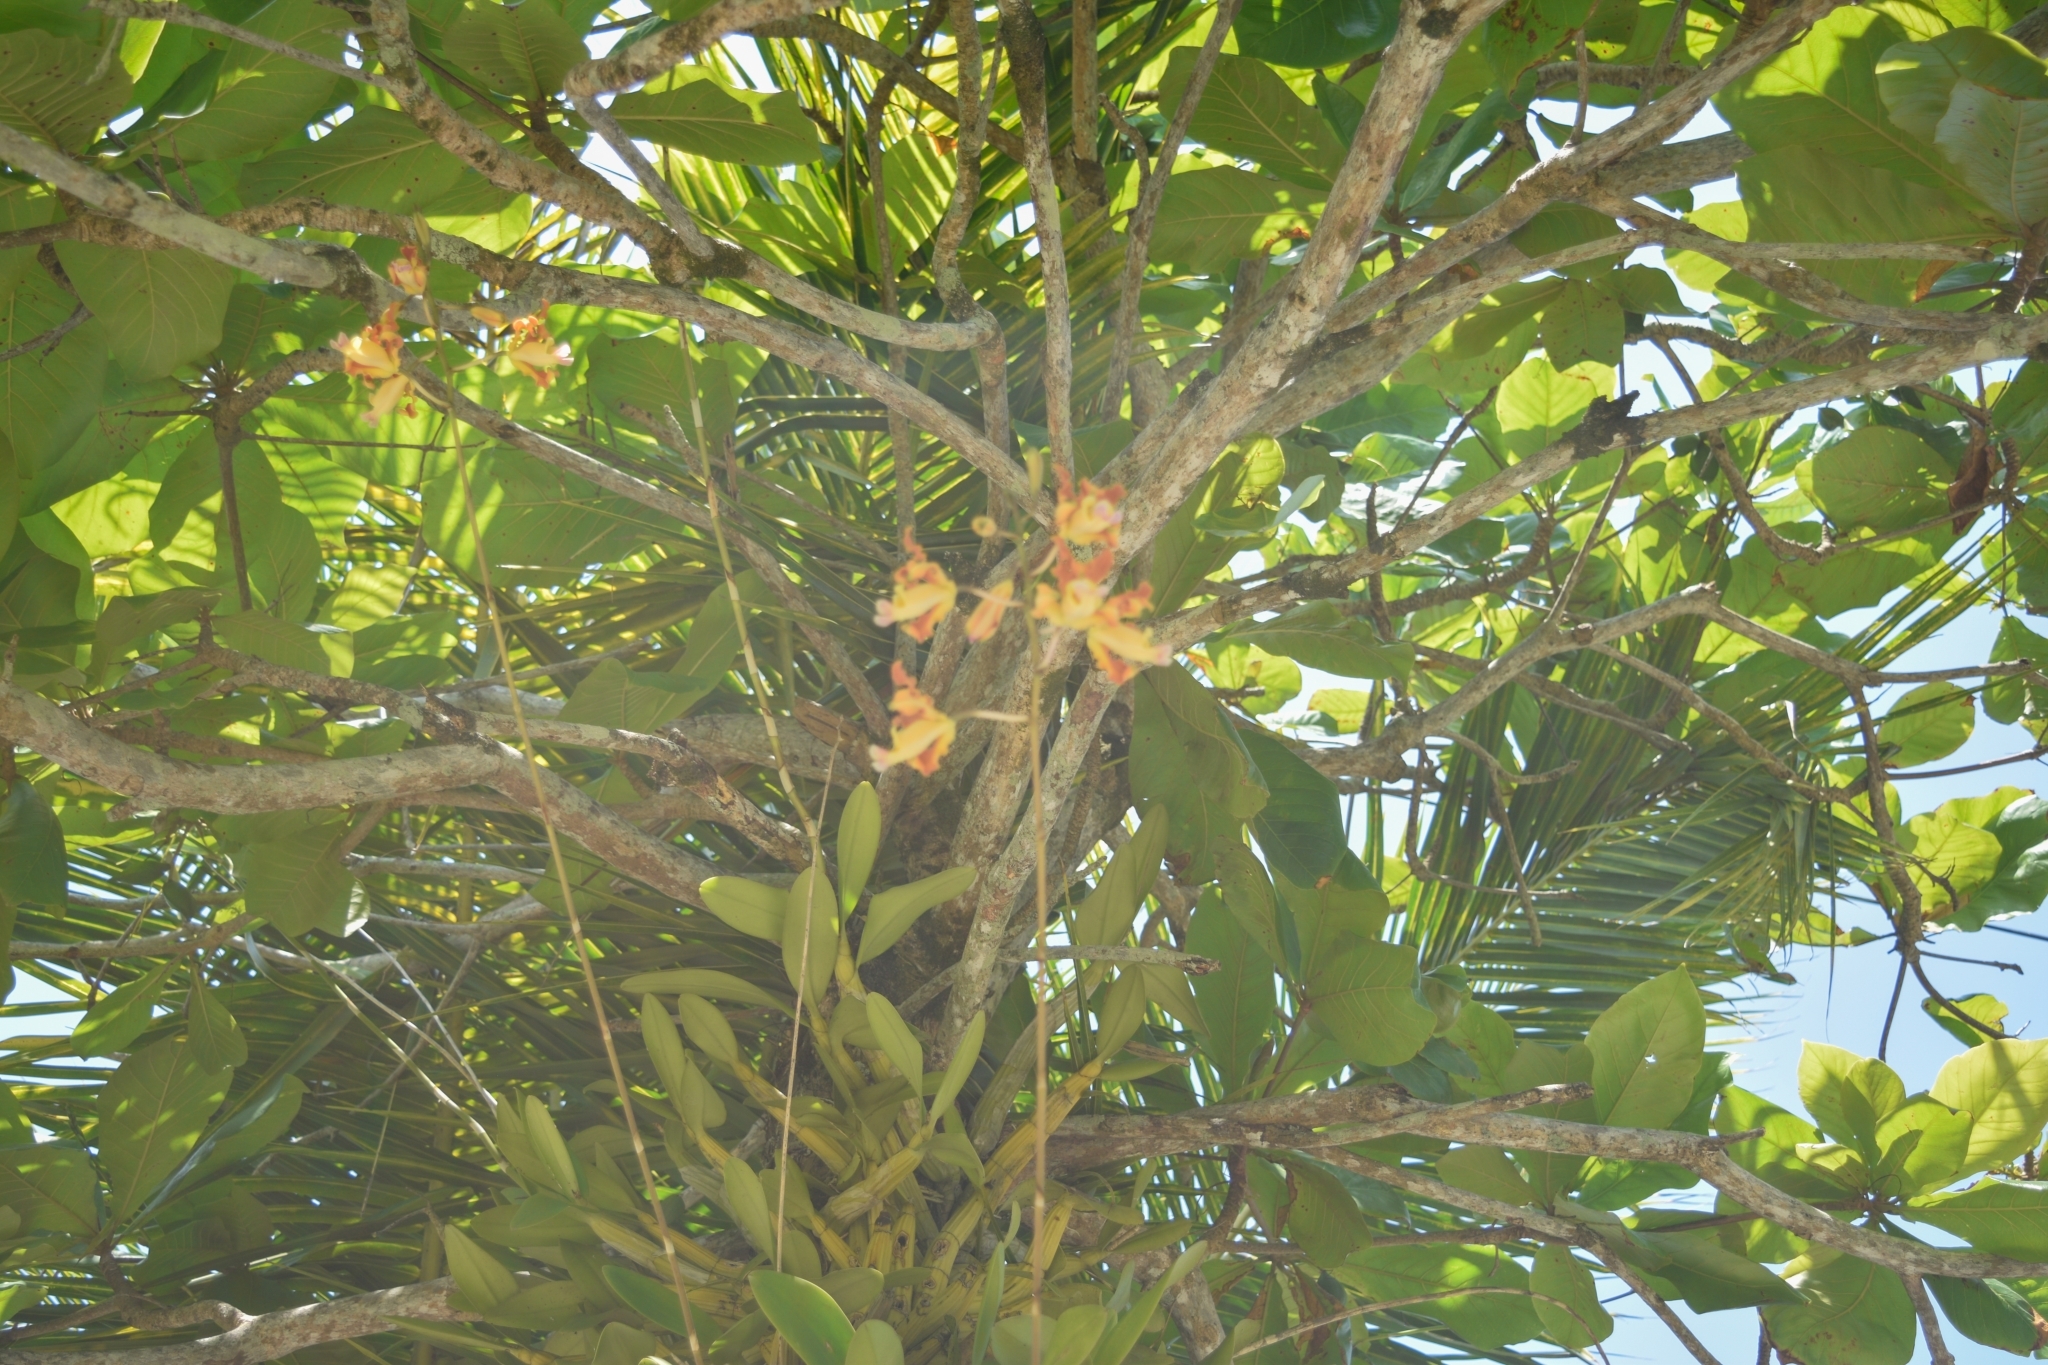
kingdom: Plantae
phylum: Tracheophyta
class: Liliopsida
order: Asparagales
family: Orchidaceae
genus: Myrmecophila
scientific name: Myrmecophila brysiana
